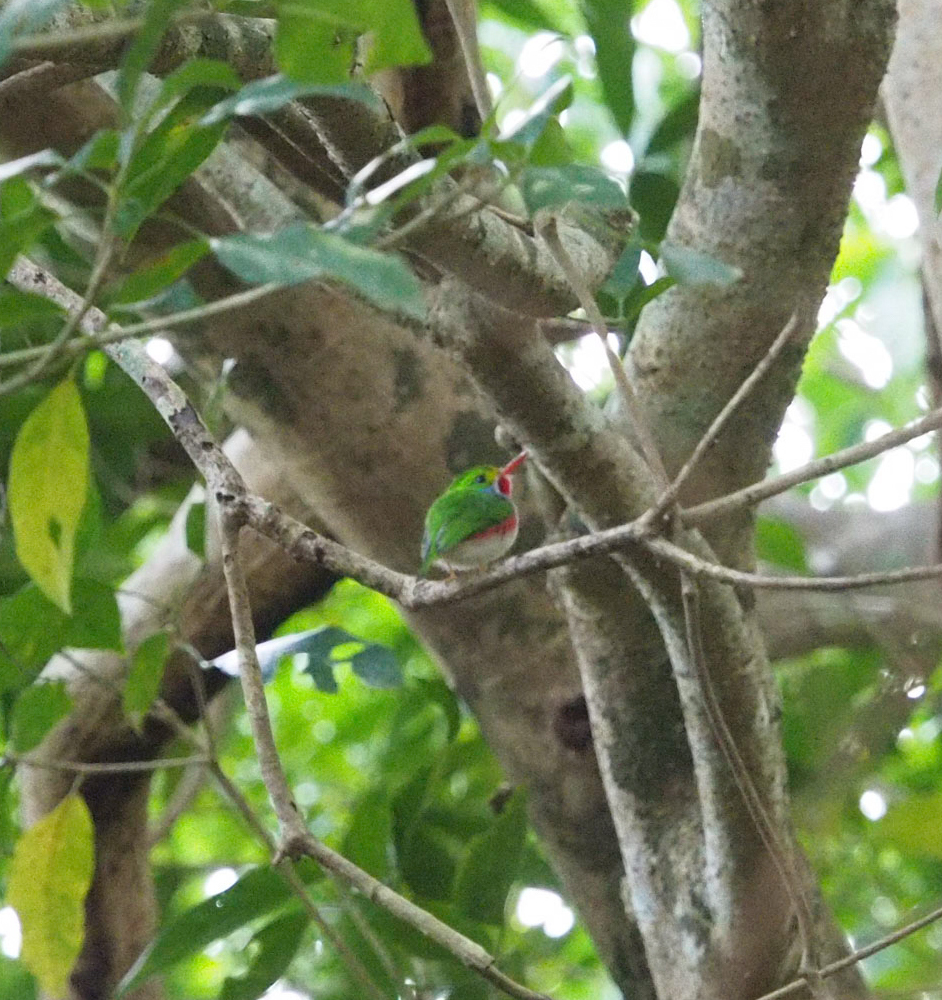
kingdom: Animalia
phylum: Chordata
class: Aves
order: Coraciiformes
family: Todidae
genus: Todus
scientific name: Todus multicolor
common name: Cuban tody
